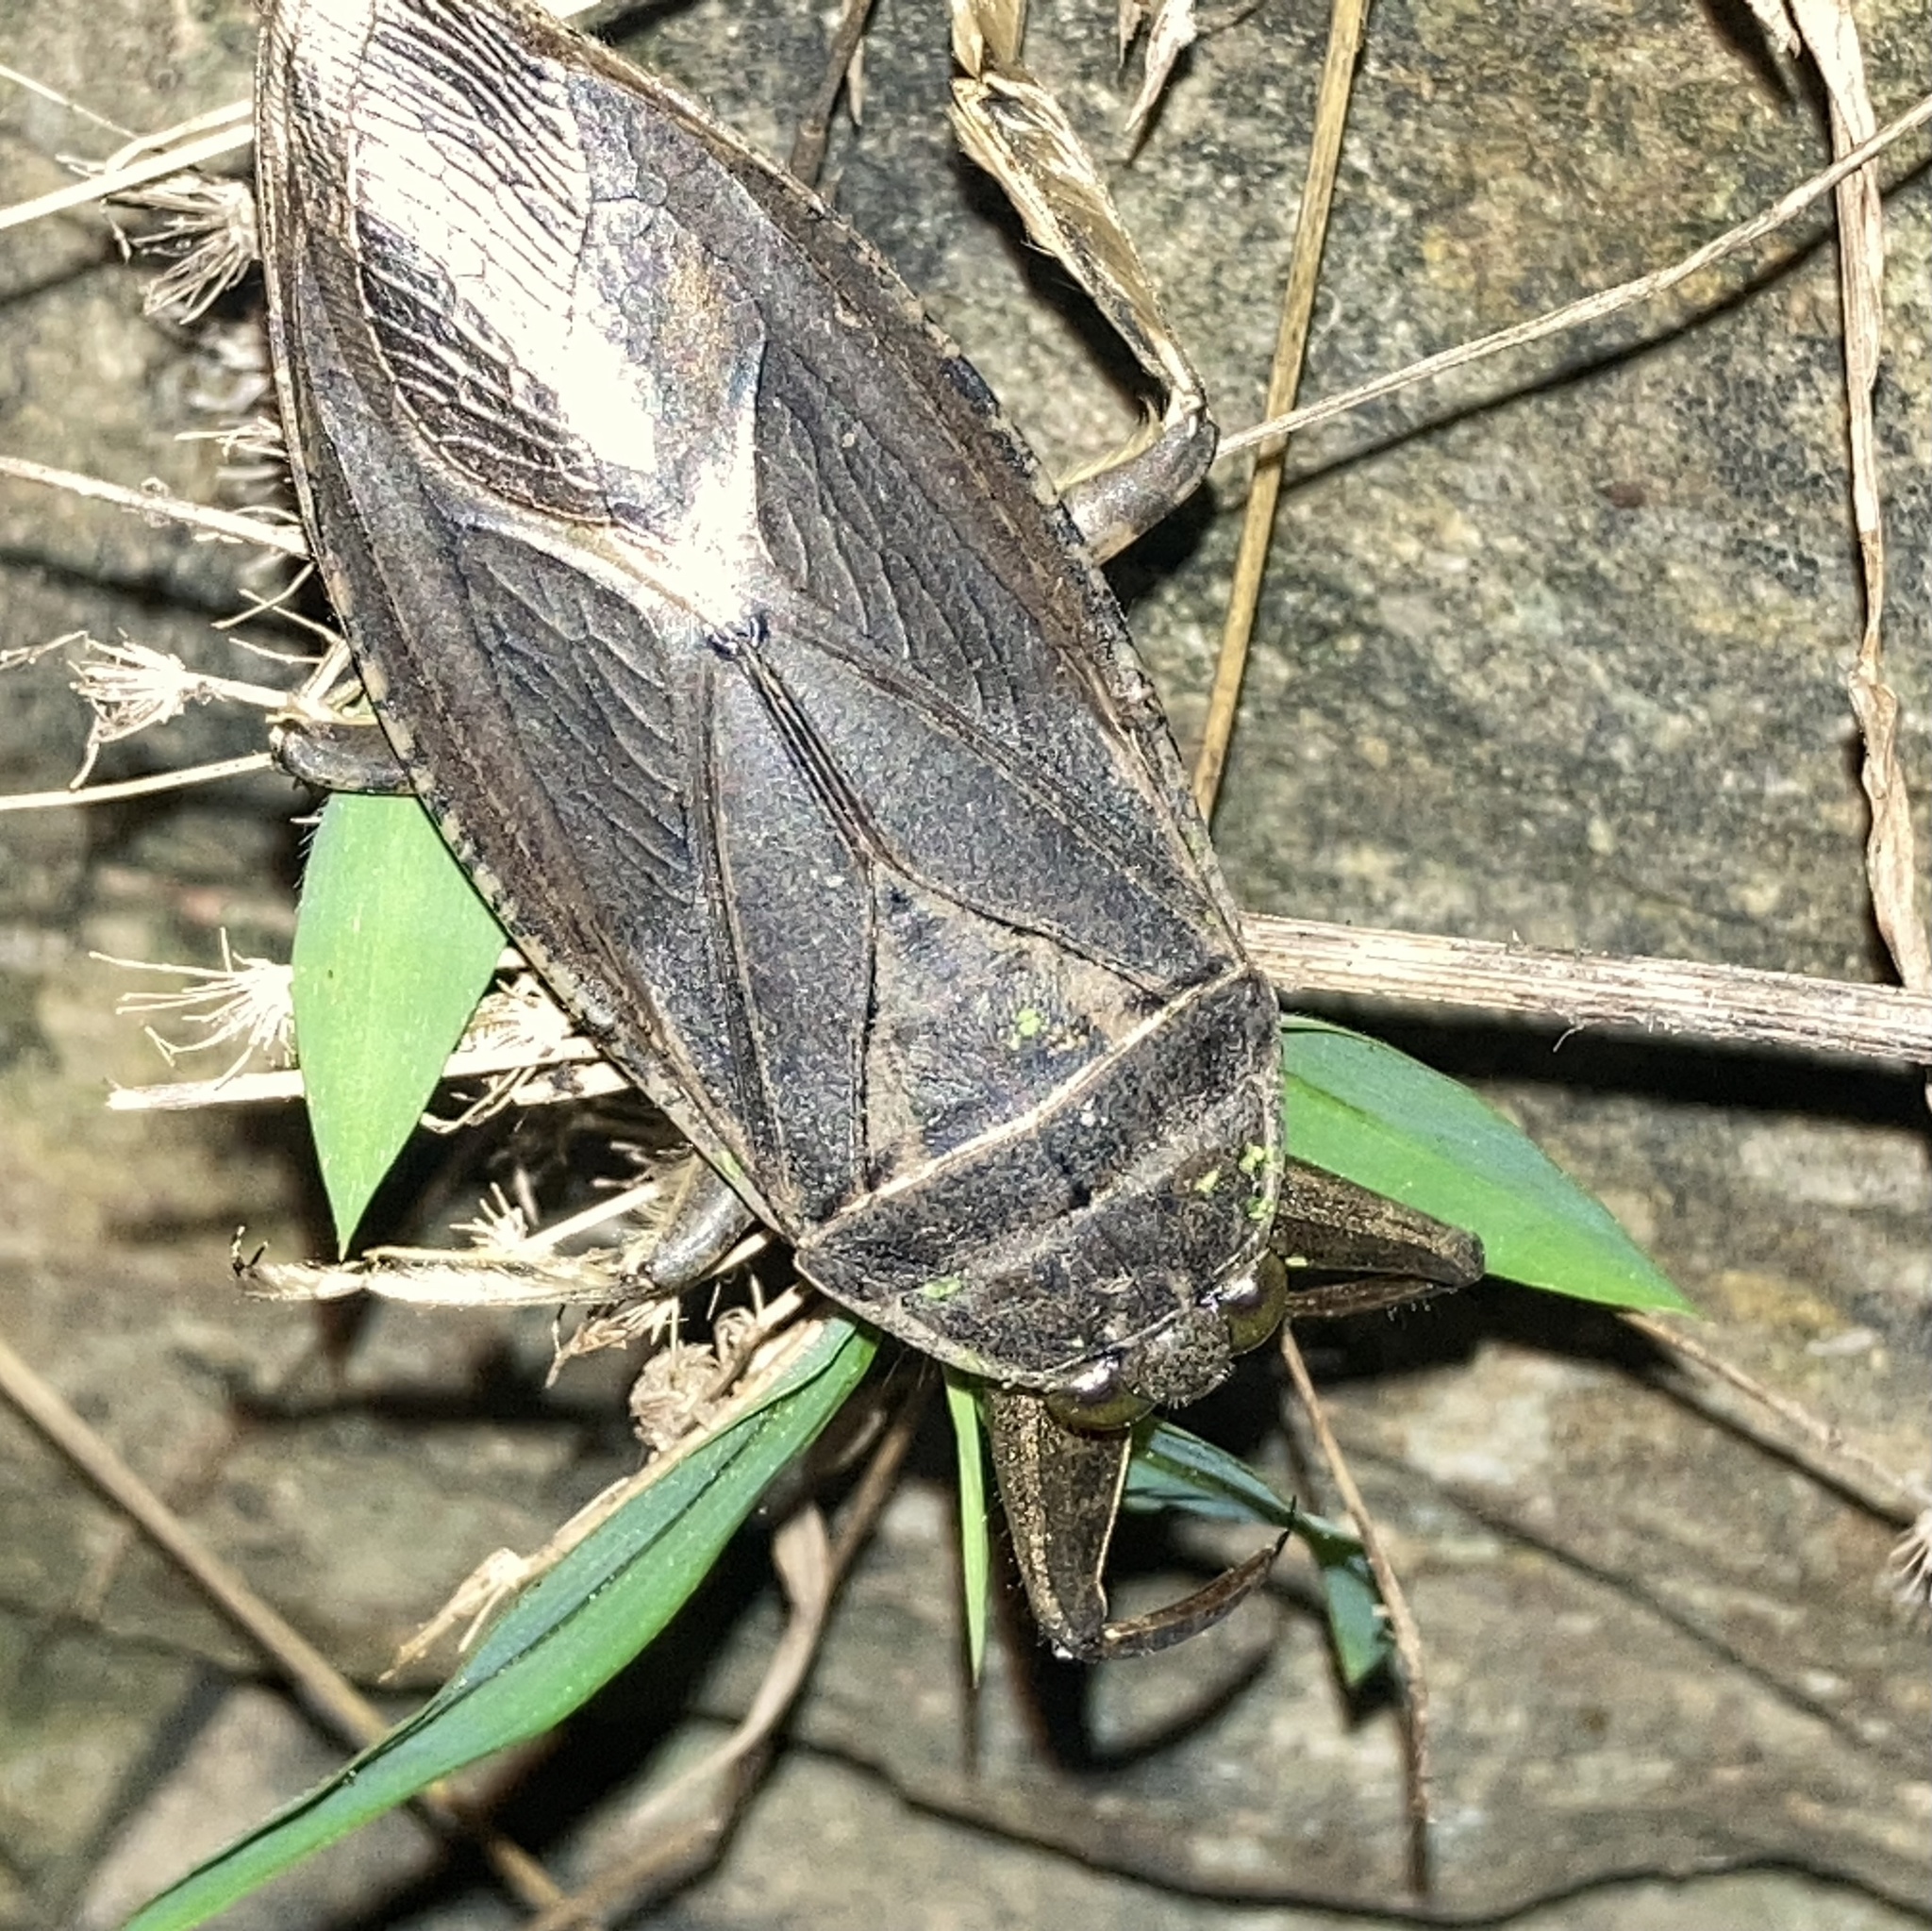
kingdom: Animalia
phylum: Arthropoda
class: Insecta
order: Hemiptera
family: Belostomatidae
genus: Lethocerus
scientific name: Lethocerus americanus
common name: Giant water bug
